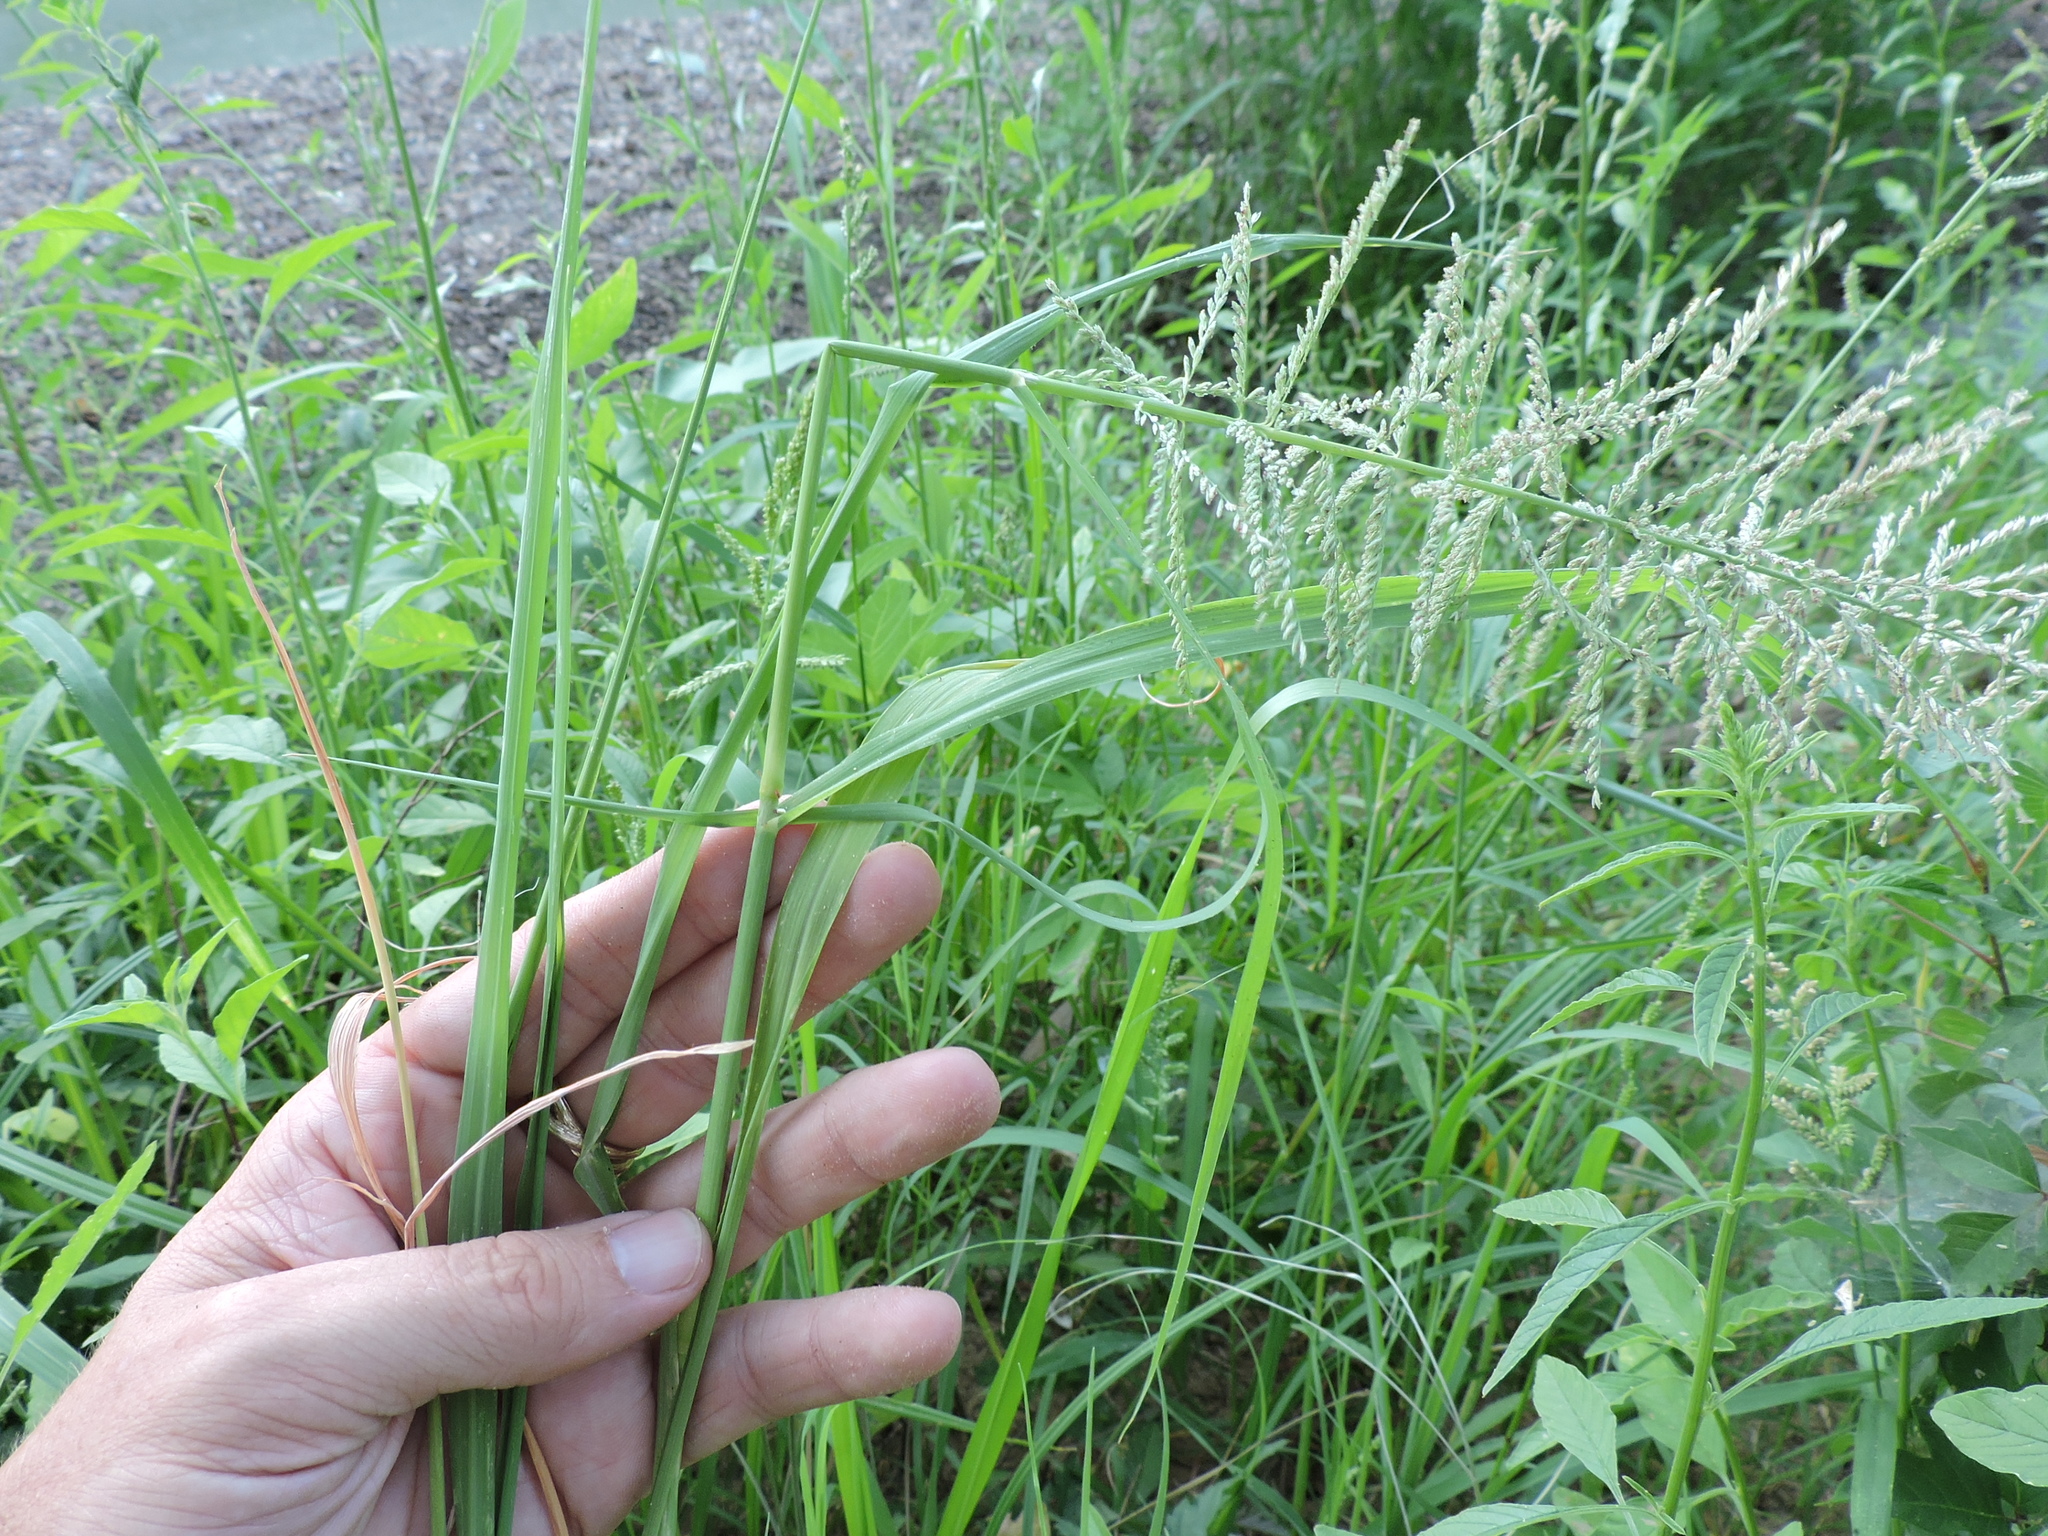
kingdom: Plantae
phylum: Tracheophyta
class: Liliopsida
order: Poales
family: Poaceae
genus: Diplachne
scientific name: Diplachne fusca
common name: Brown beetle grass
